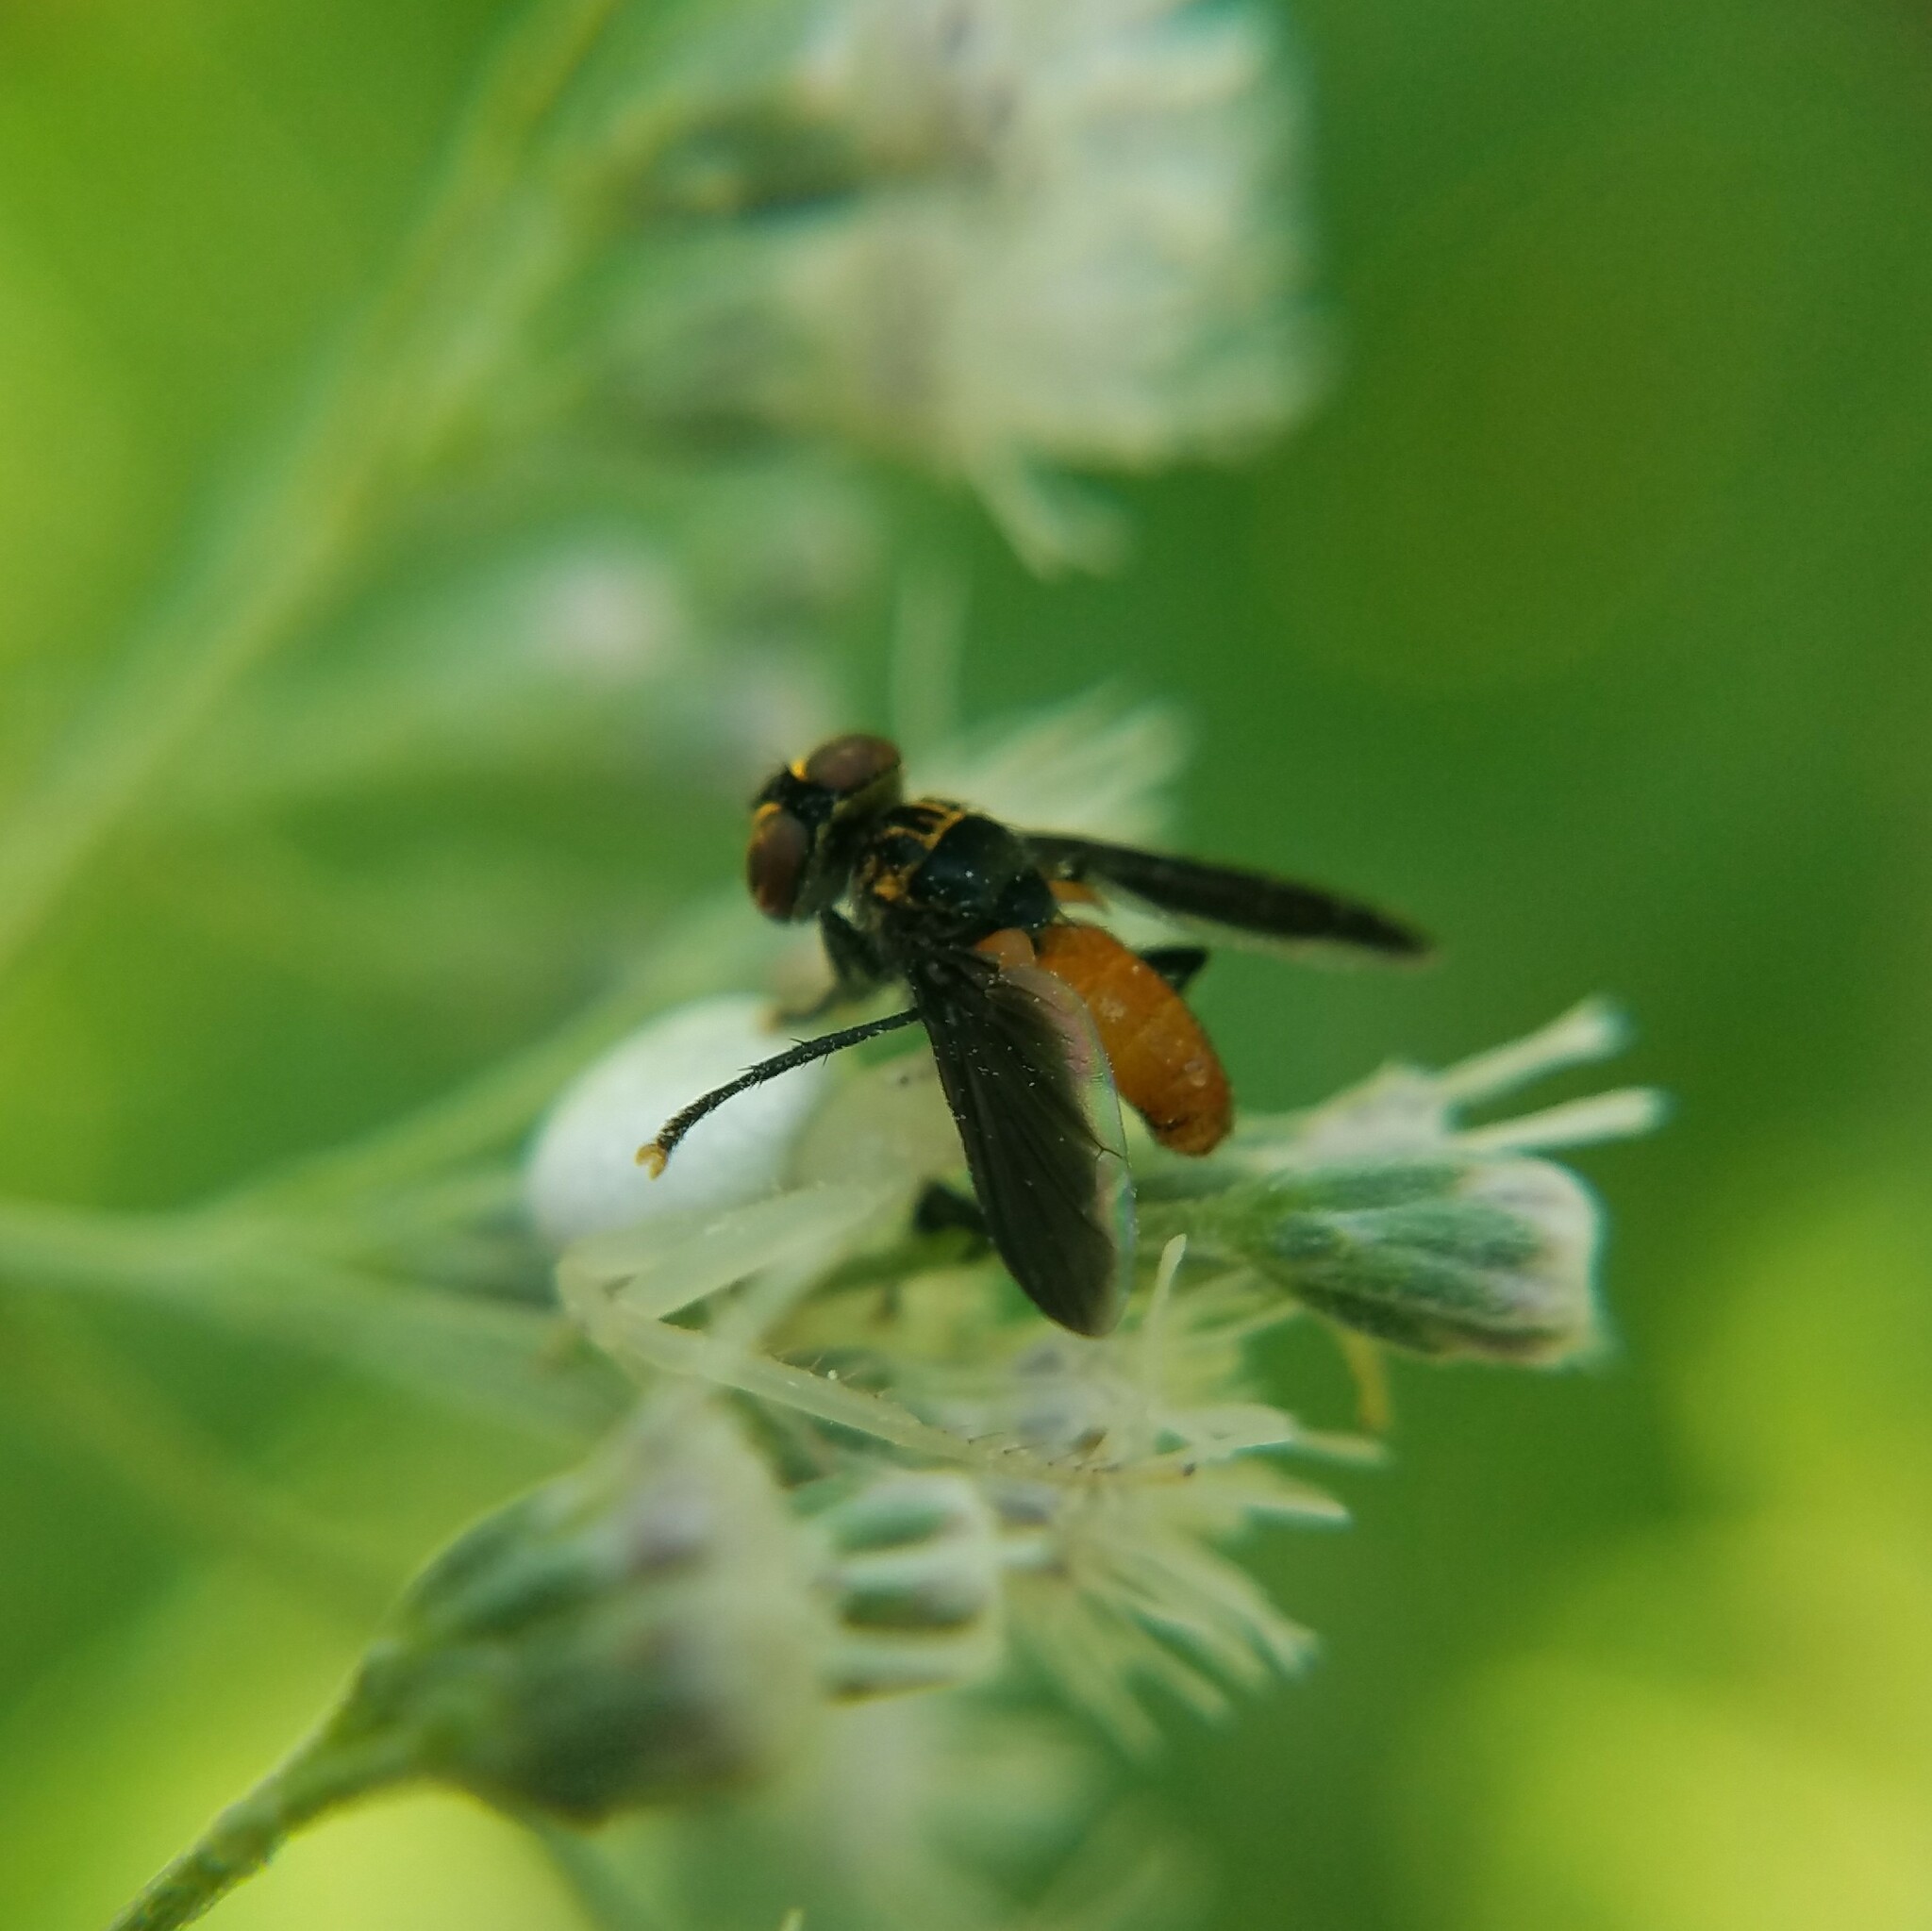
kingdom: Animalia
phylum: Arthropoda
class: Insecta
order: Diptera
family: Tachinidae
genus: Trichopoda
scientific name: Trichopoda pennipes
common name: Tachinid fly
